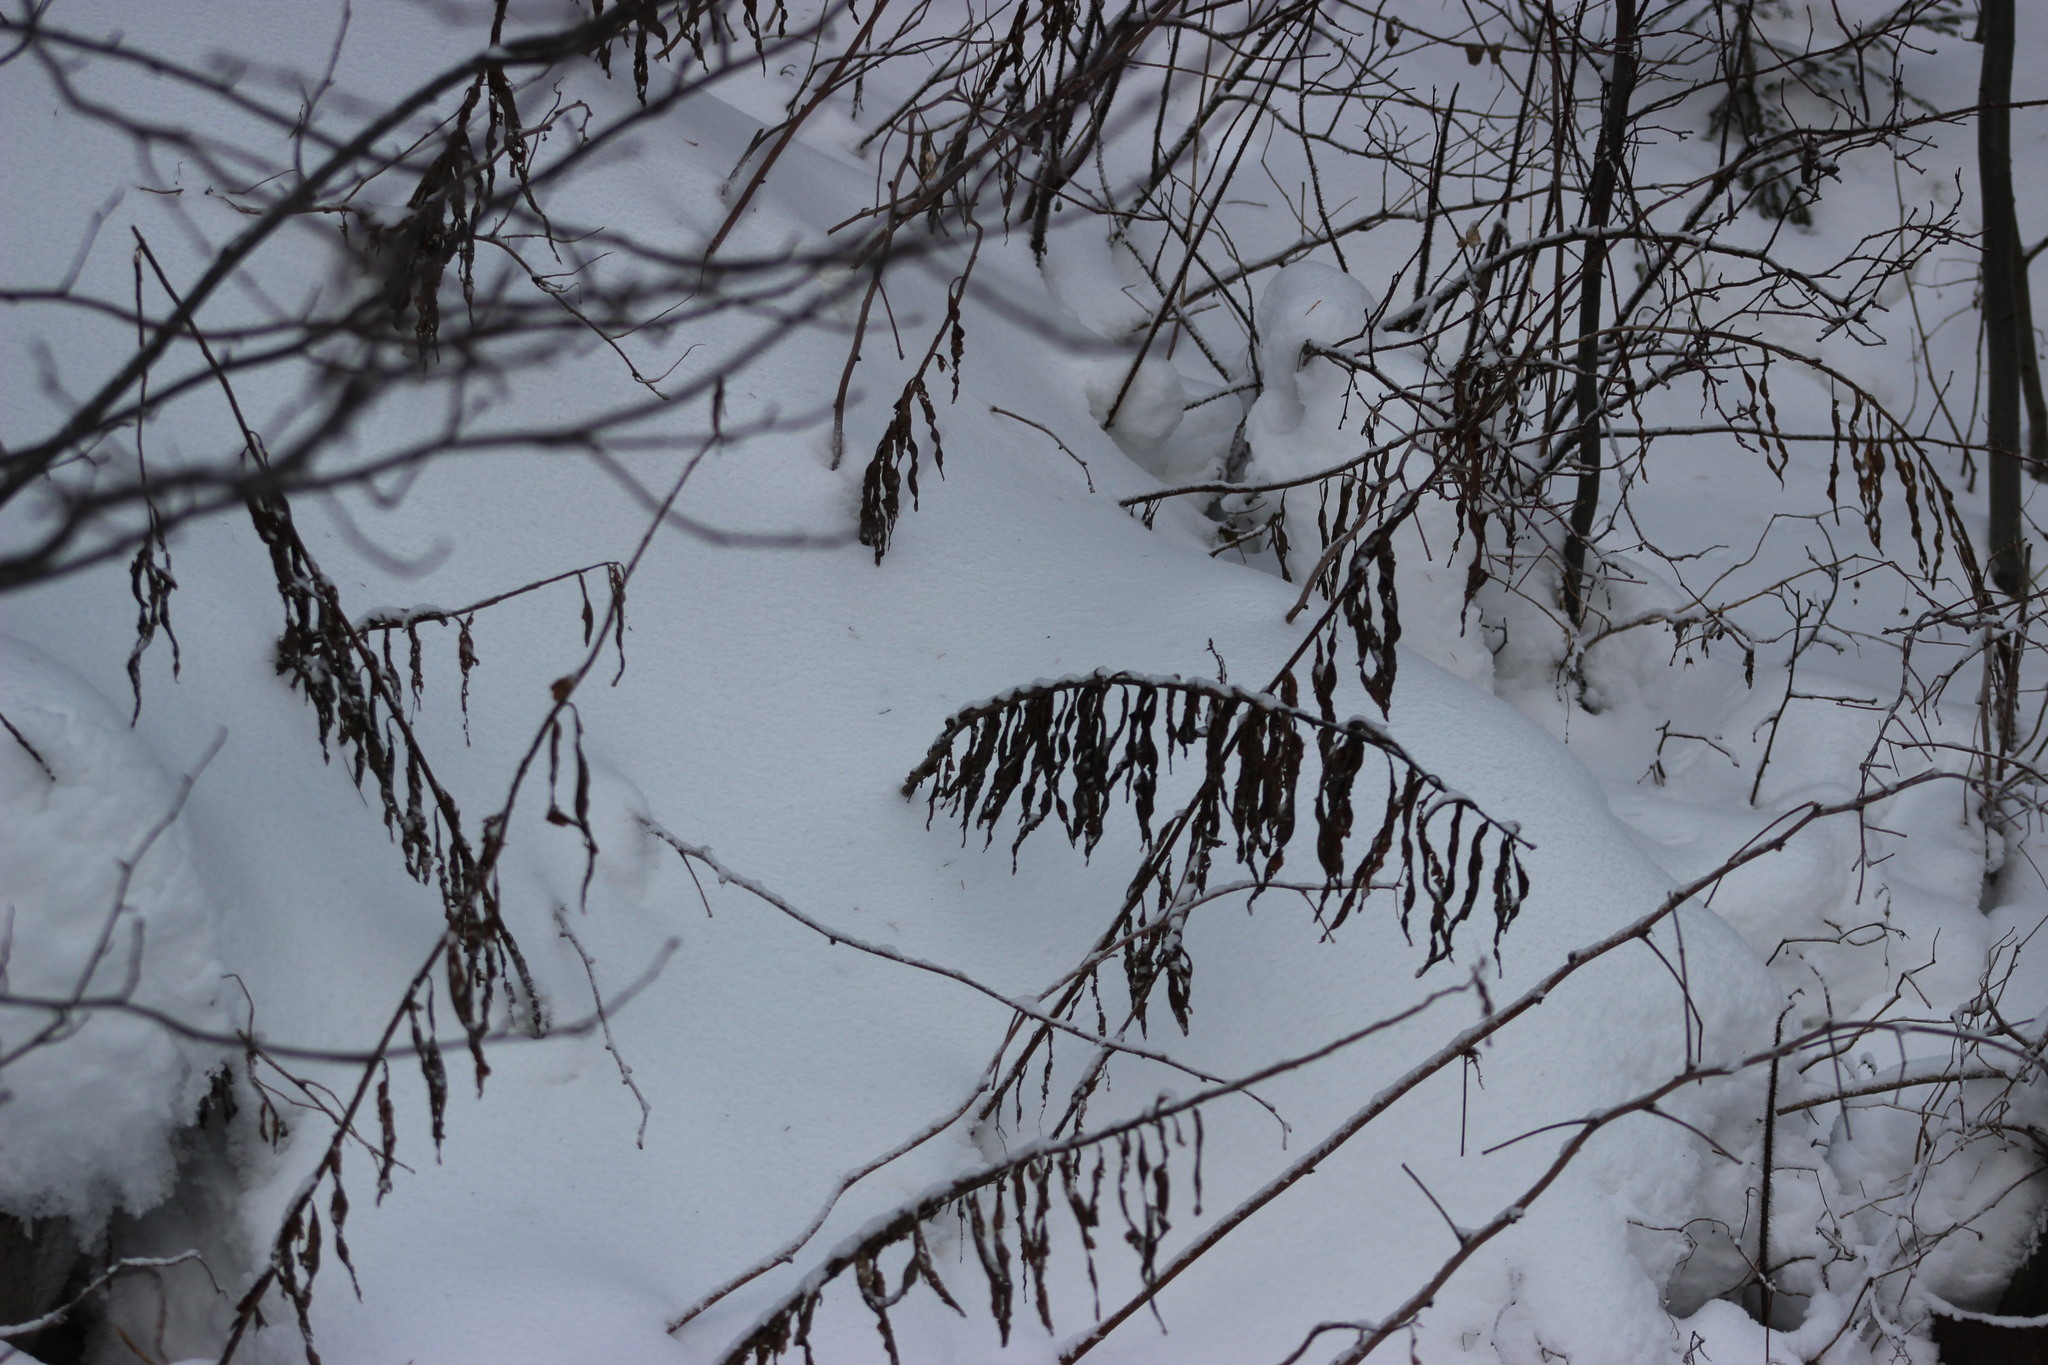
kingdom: Plantae
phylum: Tracheophyta
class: Magnoliopsida
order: Myrtales
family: Onagraceae
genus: Chamaenerion
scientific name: Chamaenerion angustifolium
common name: Fireweed
